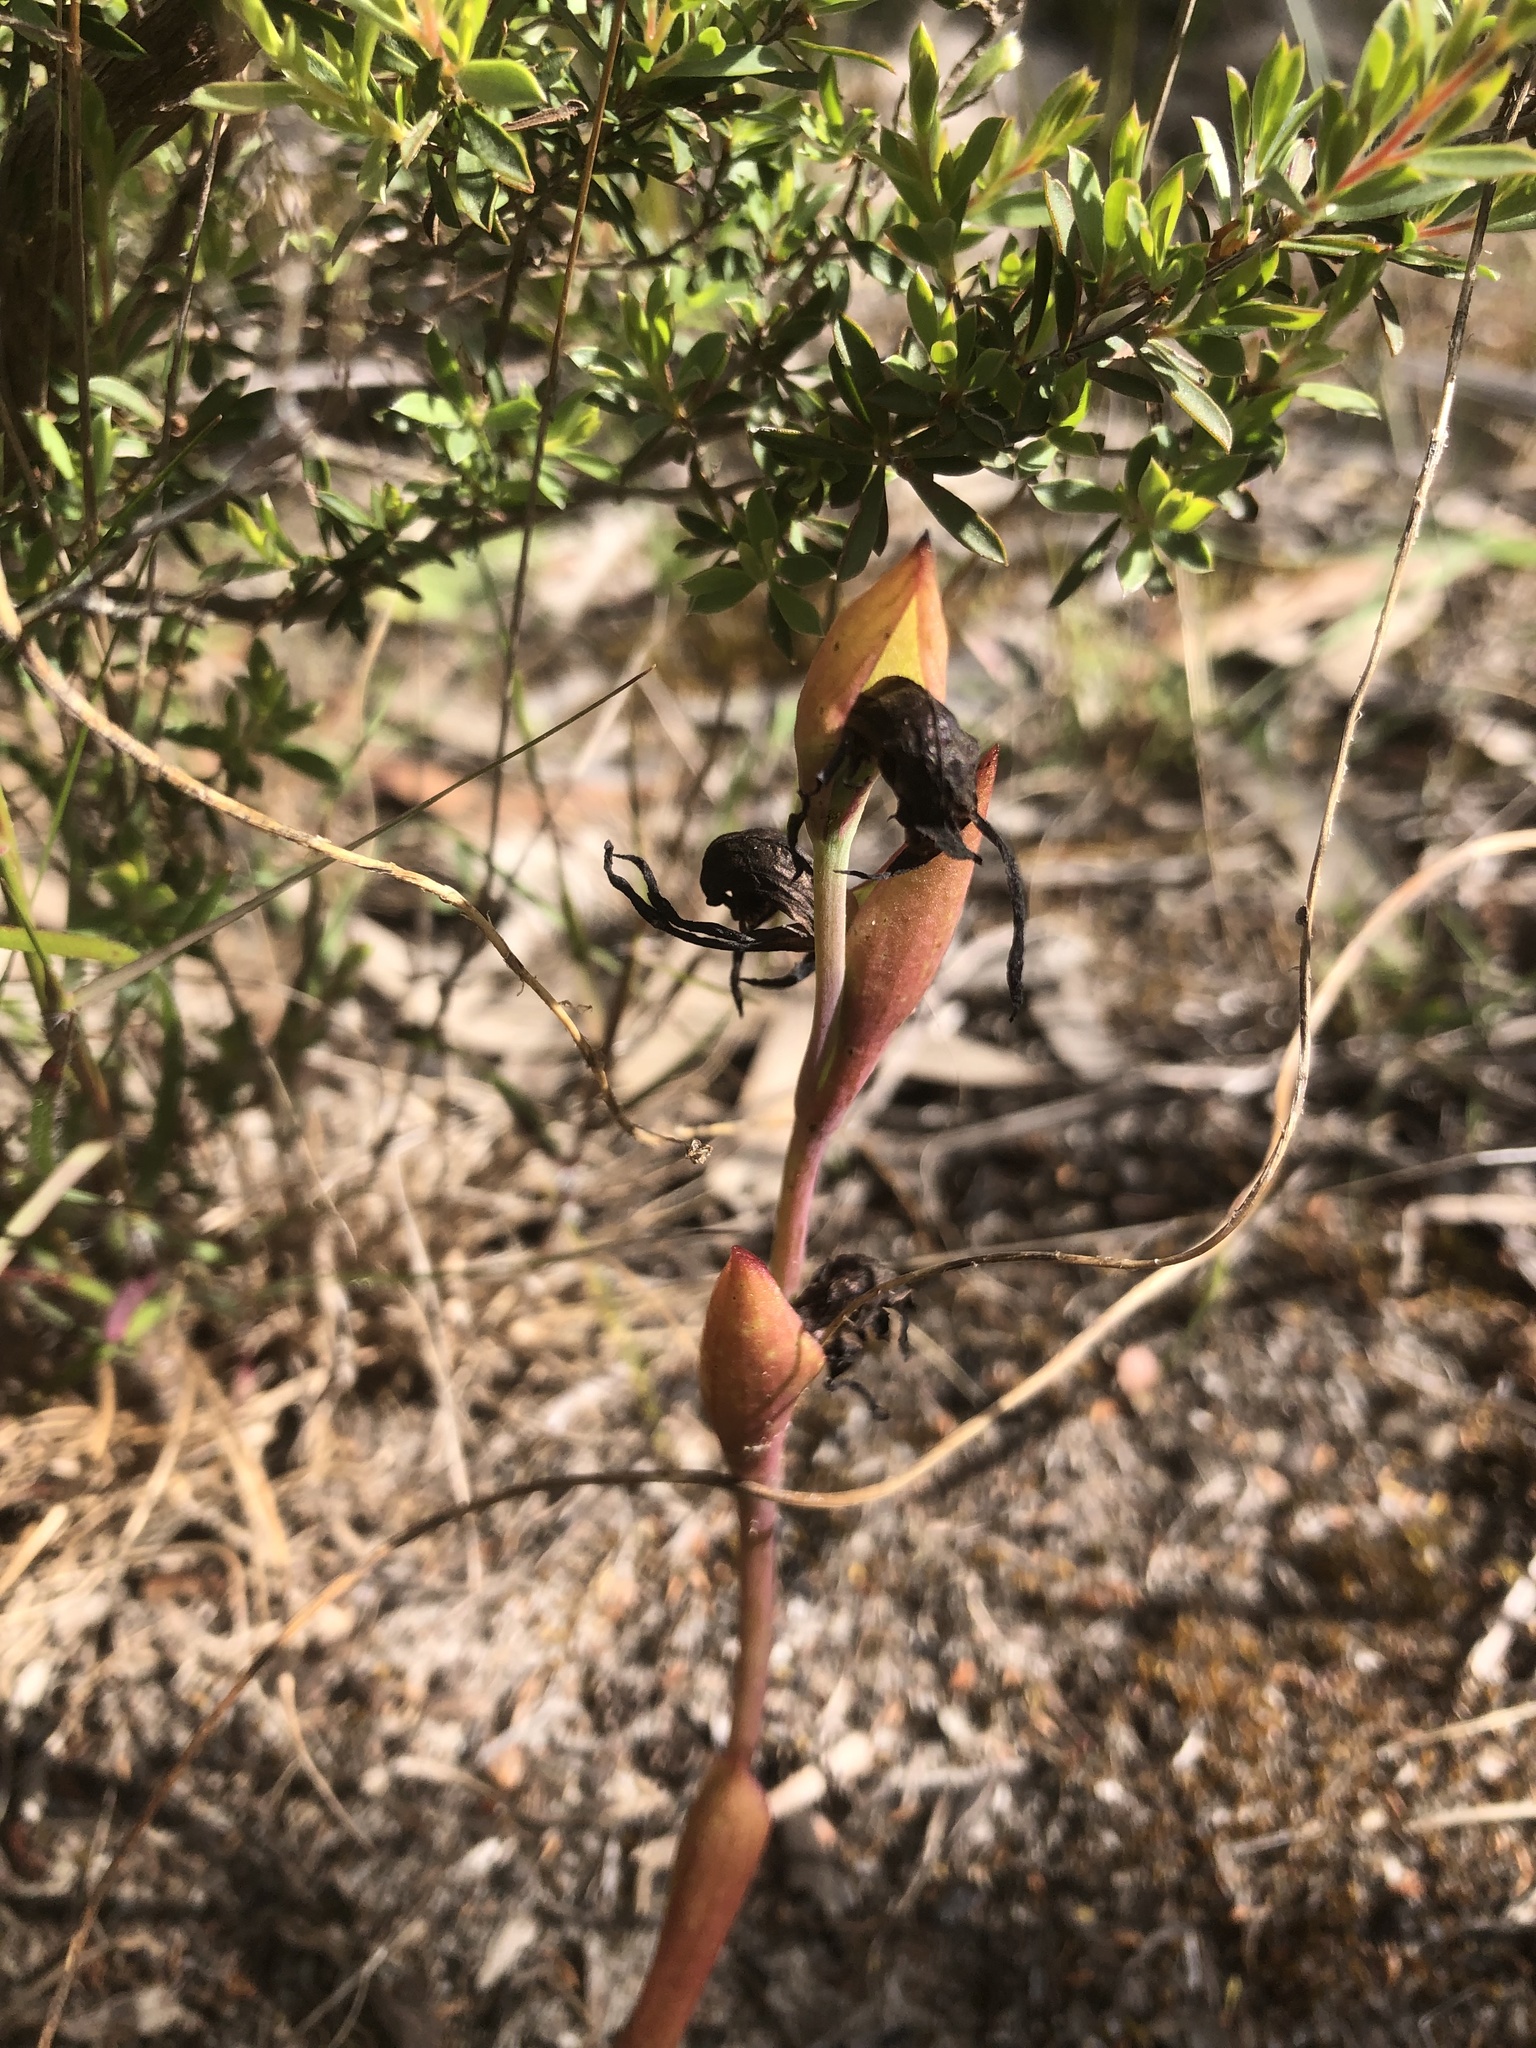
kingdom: Plantae
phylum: Tracheophyta
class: Liliopsida
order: Asparagales
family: Orchidaceae
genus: Pyrorchis
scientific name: Pyrorchis nigricans
